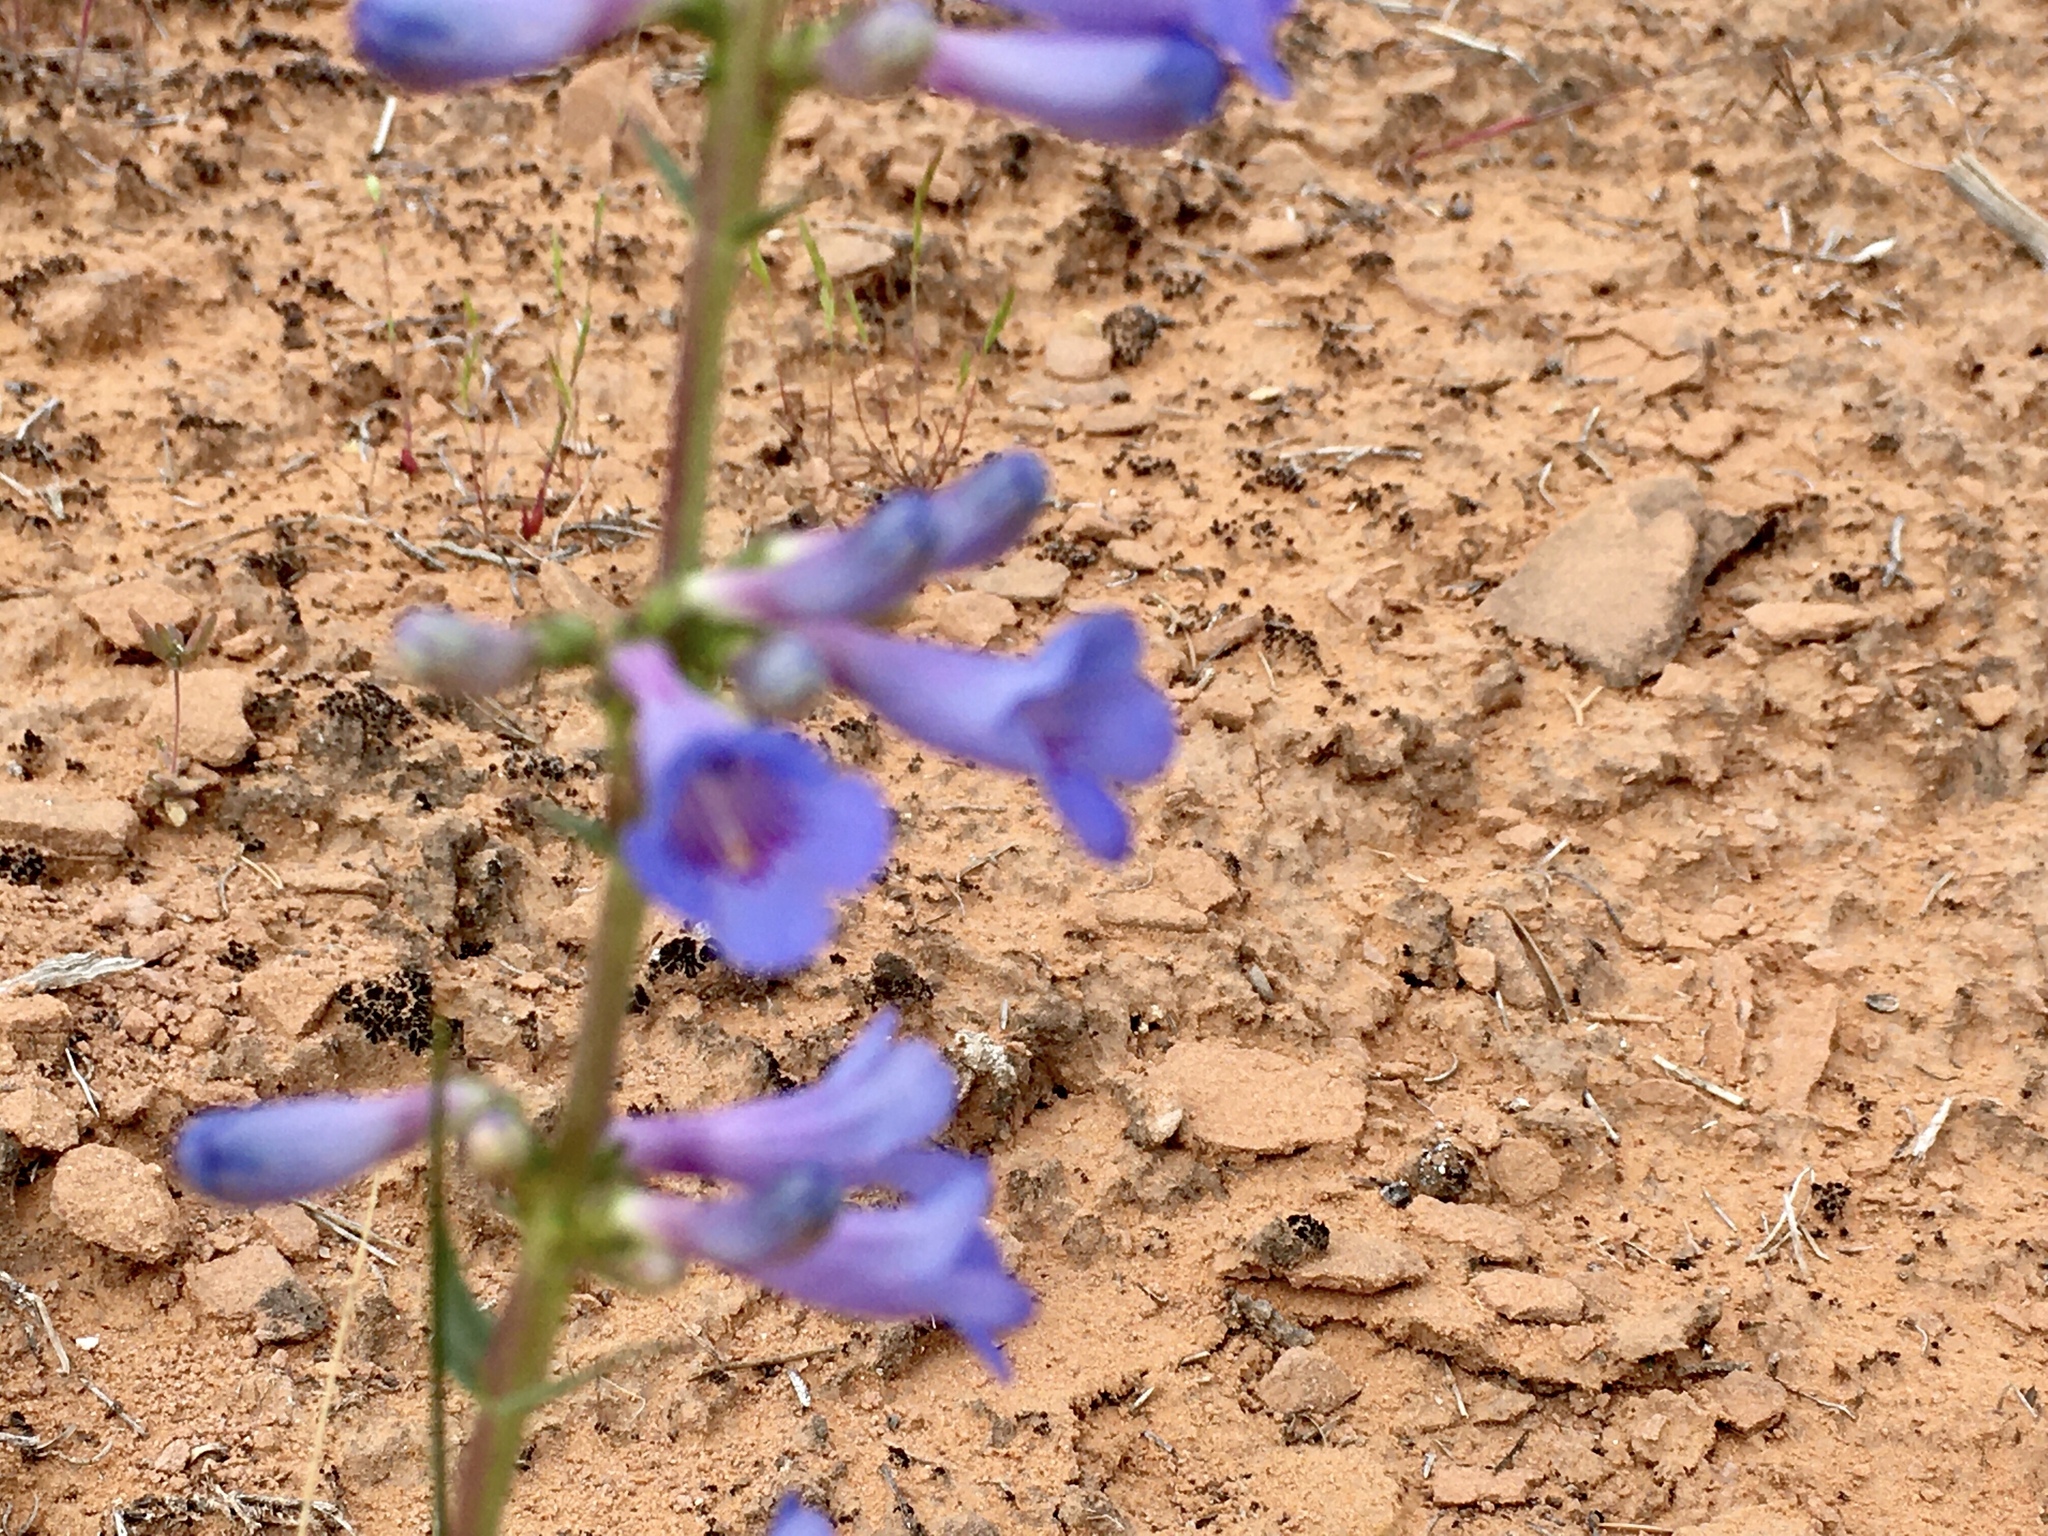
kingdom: Plantae
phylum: Tracheophyta
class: Magnoliopsida
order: Lamiales
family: Plantaginaceae
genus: Penstemon
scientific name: Penstemon cyanocaulis
